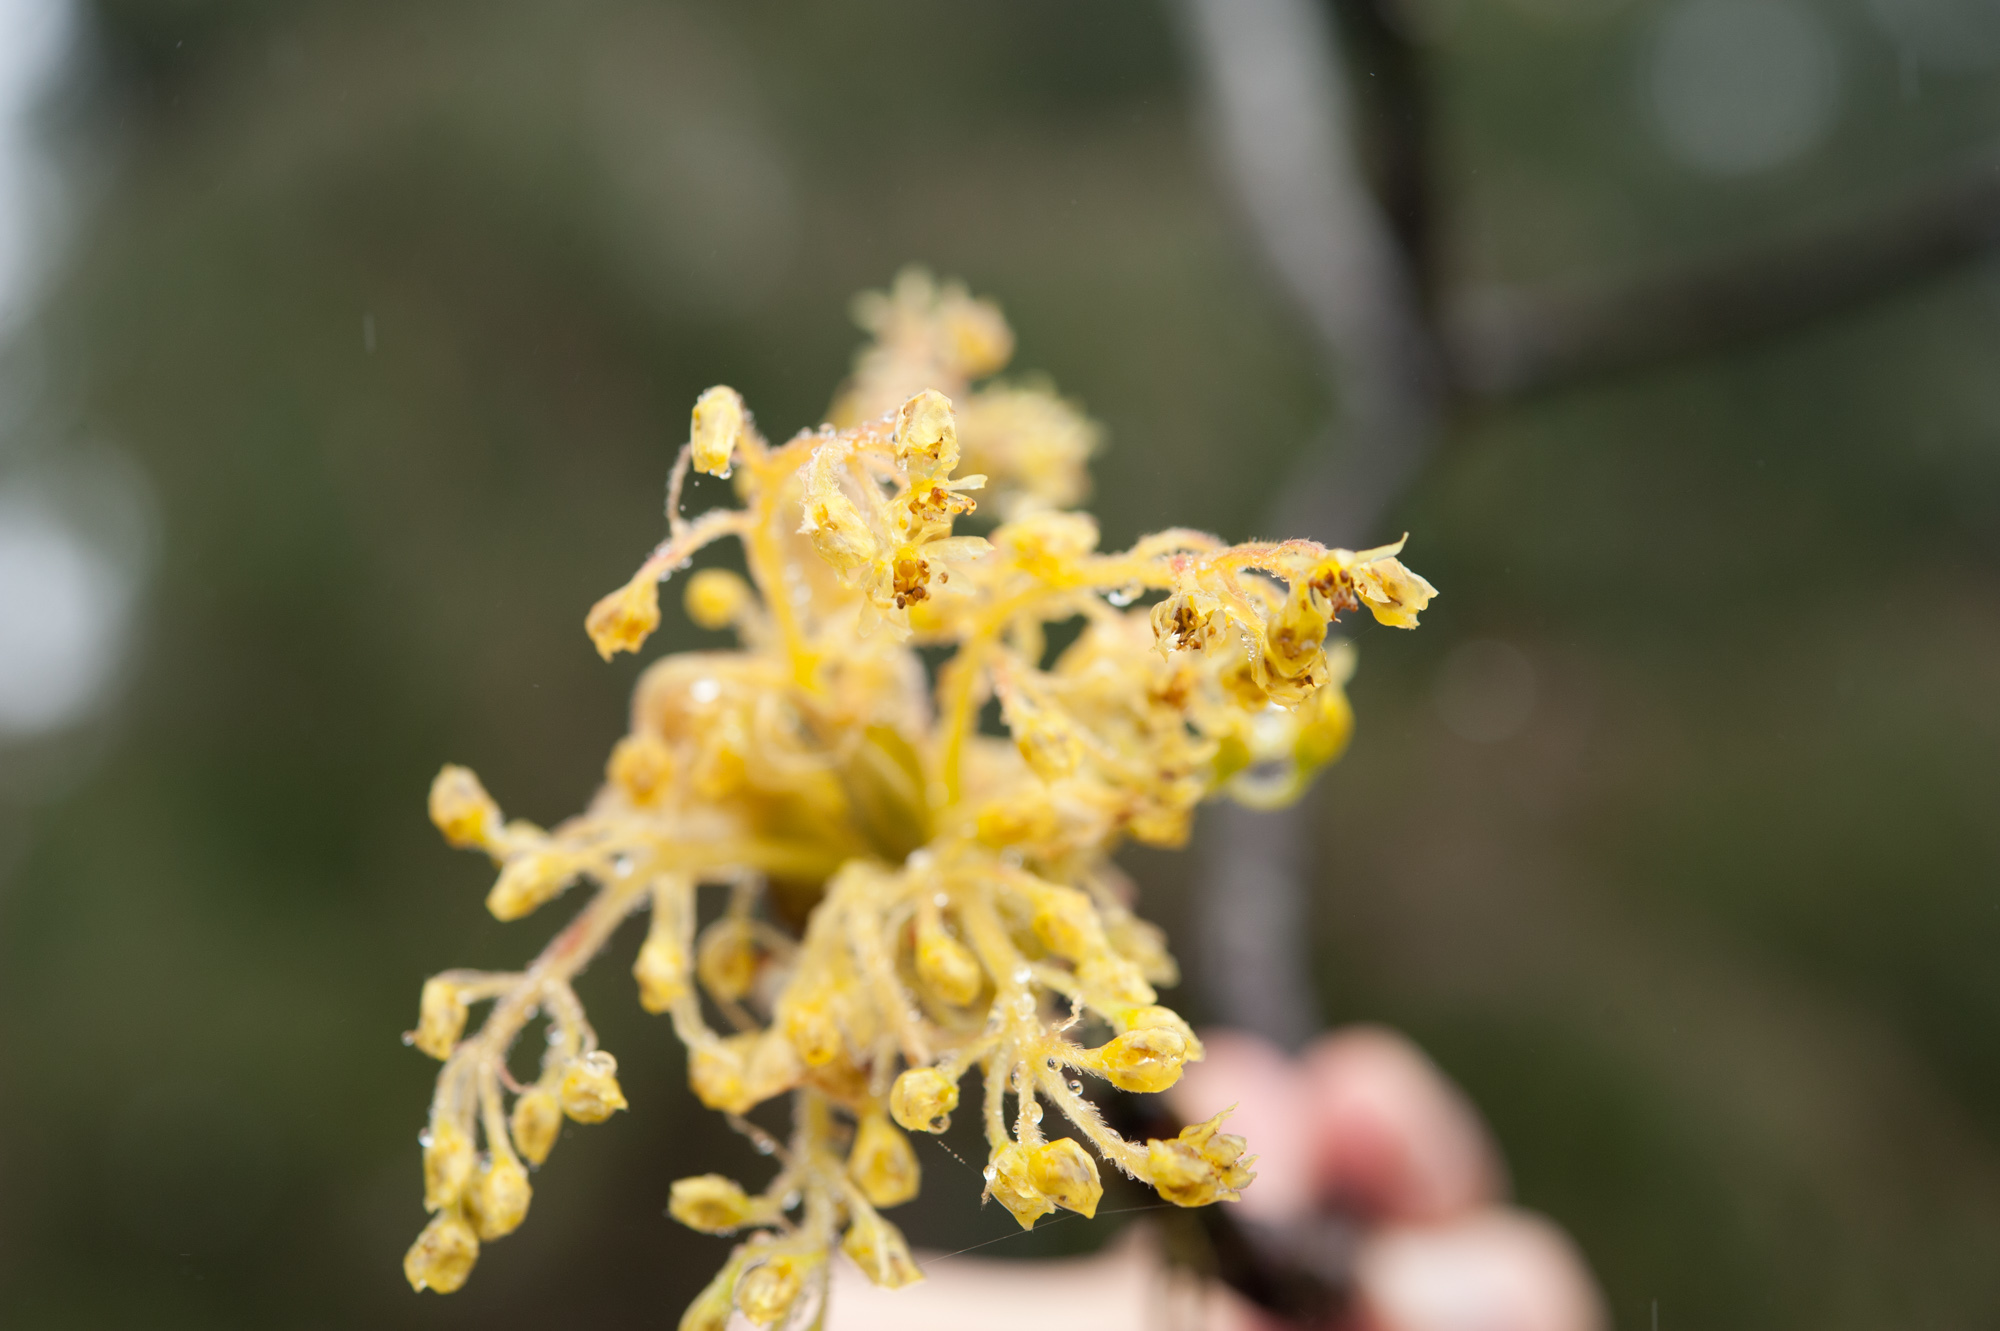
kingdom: Plantae
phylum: Tracheophyta
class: Magnoliopsida
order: Laurales
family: Lauraceae
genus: Sassafras
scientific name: Sassafras randaiense
